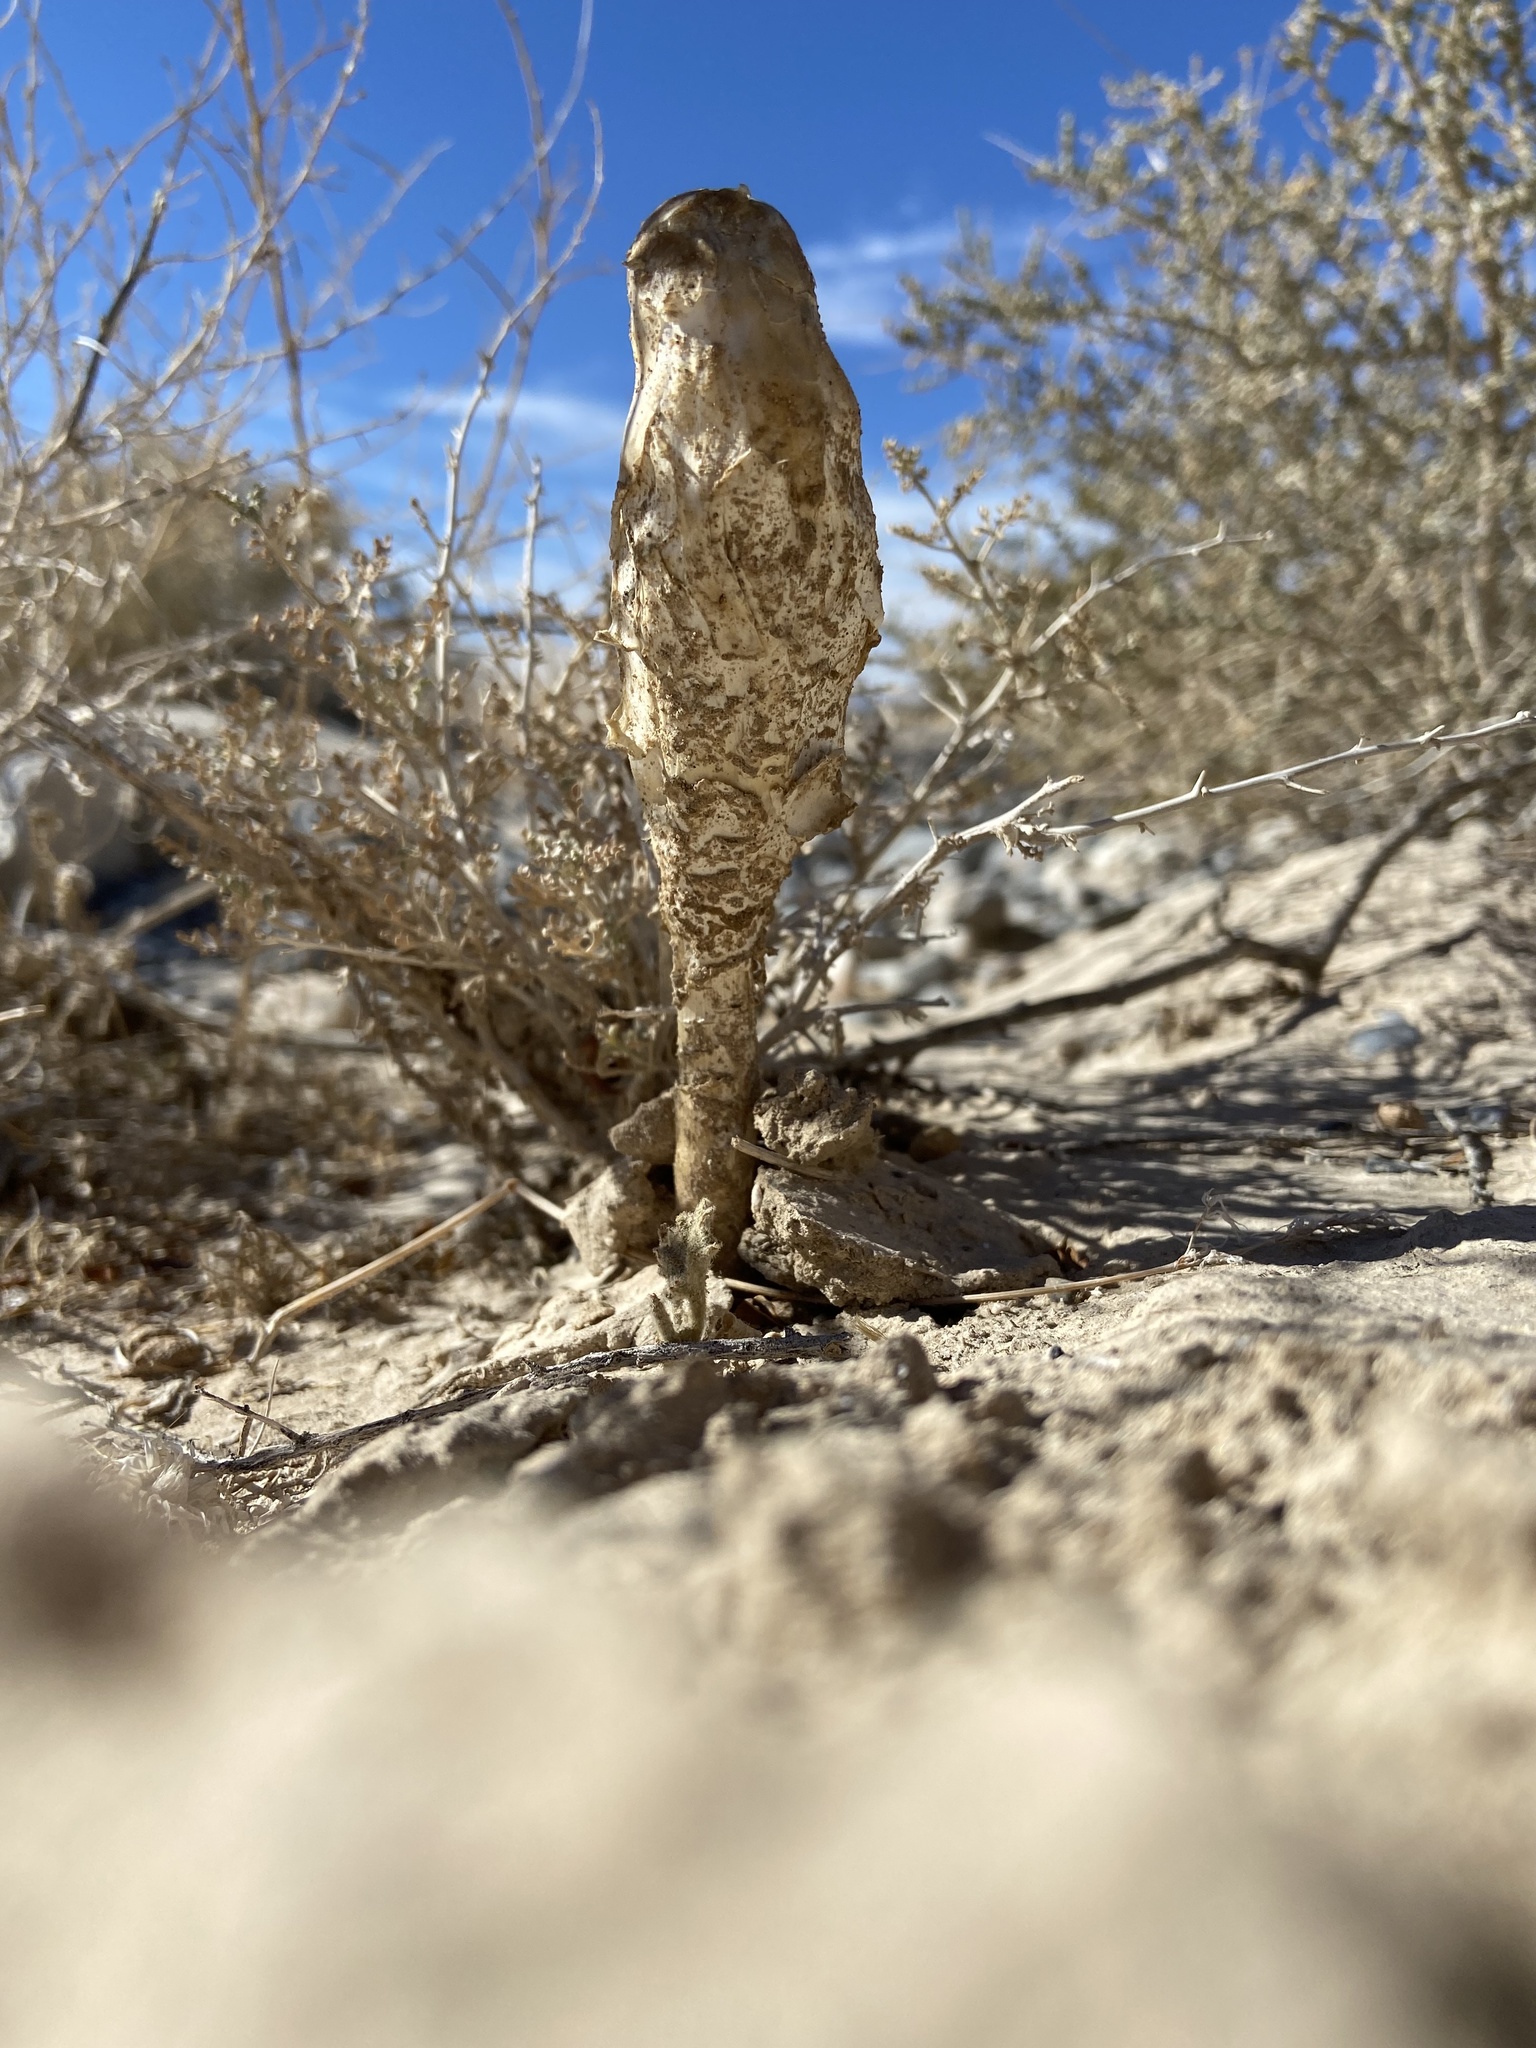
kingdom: Fungi
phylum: Basidiomycota
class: Agaricomycetes
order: Agaricales
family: Agaricaceae
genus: Podaxis
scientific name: Podaxis pistillaris
